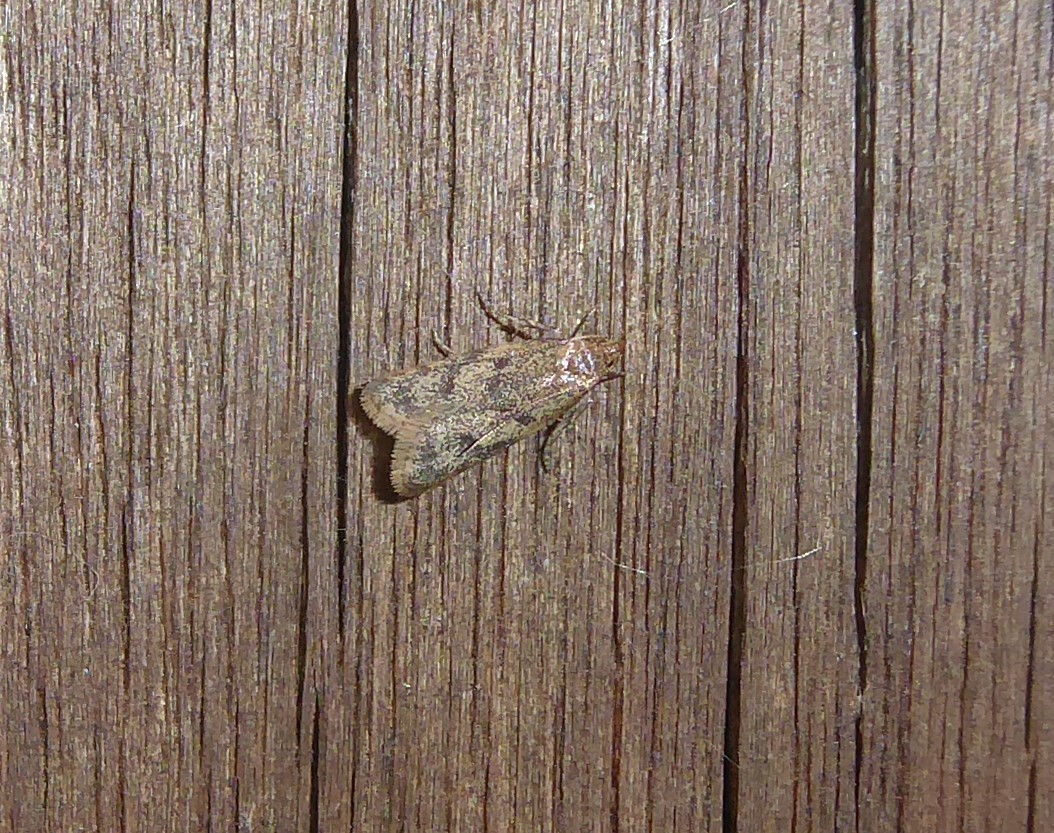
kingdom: Animalia
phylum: Arthropoda
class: Insecta
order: Lepidoptera
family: Oecophoridae
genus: Gymnobathra
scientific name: Gymnobathra tholodella
